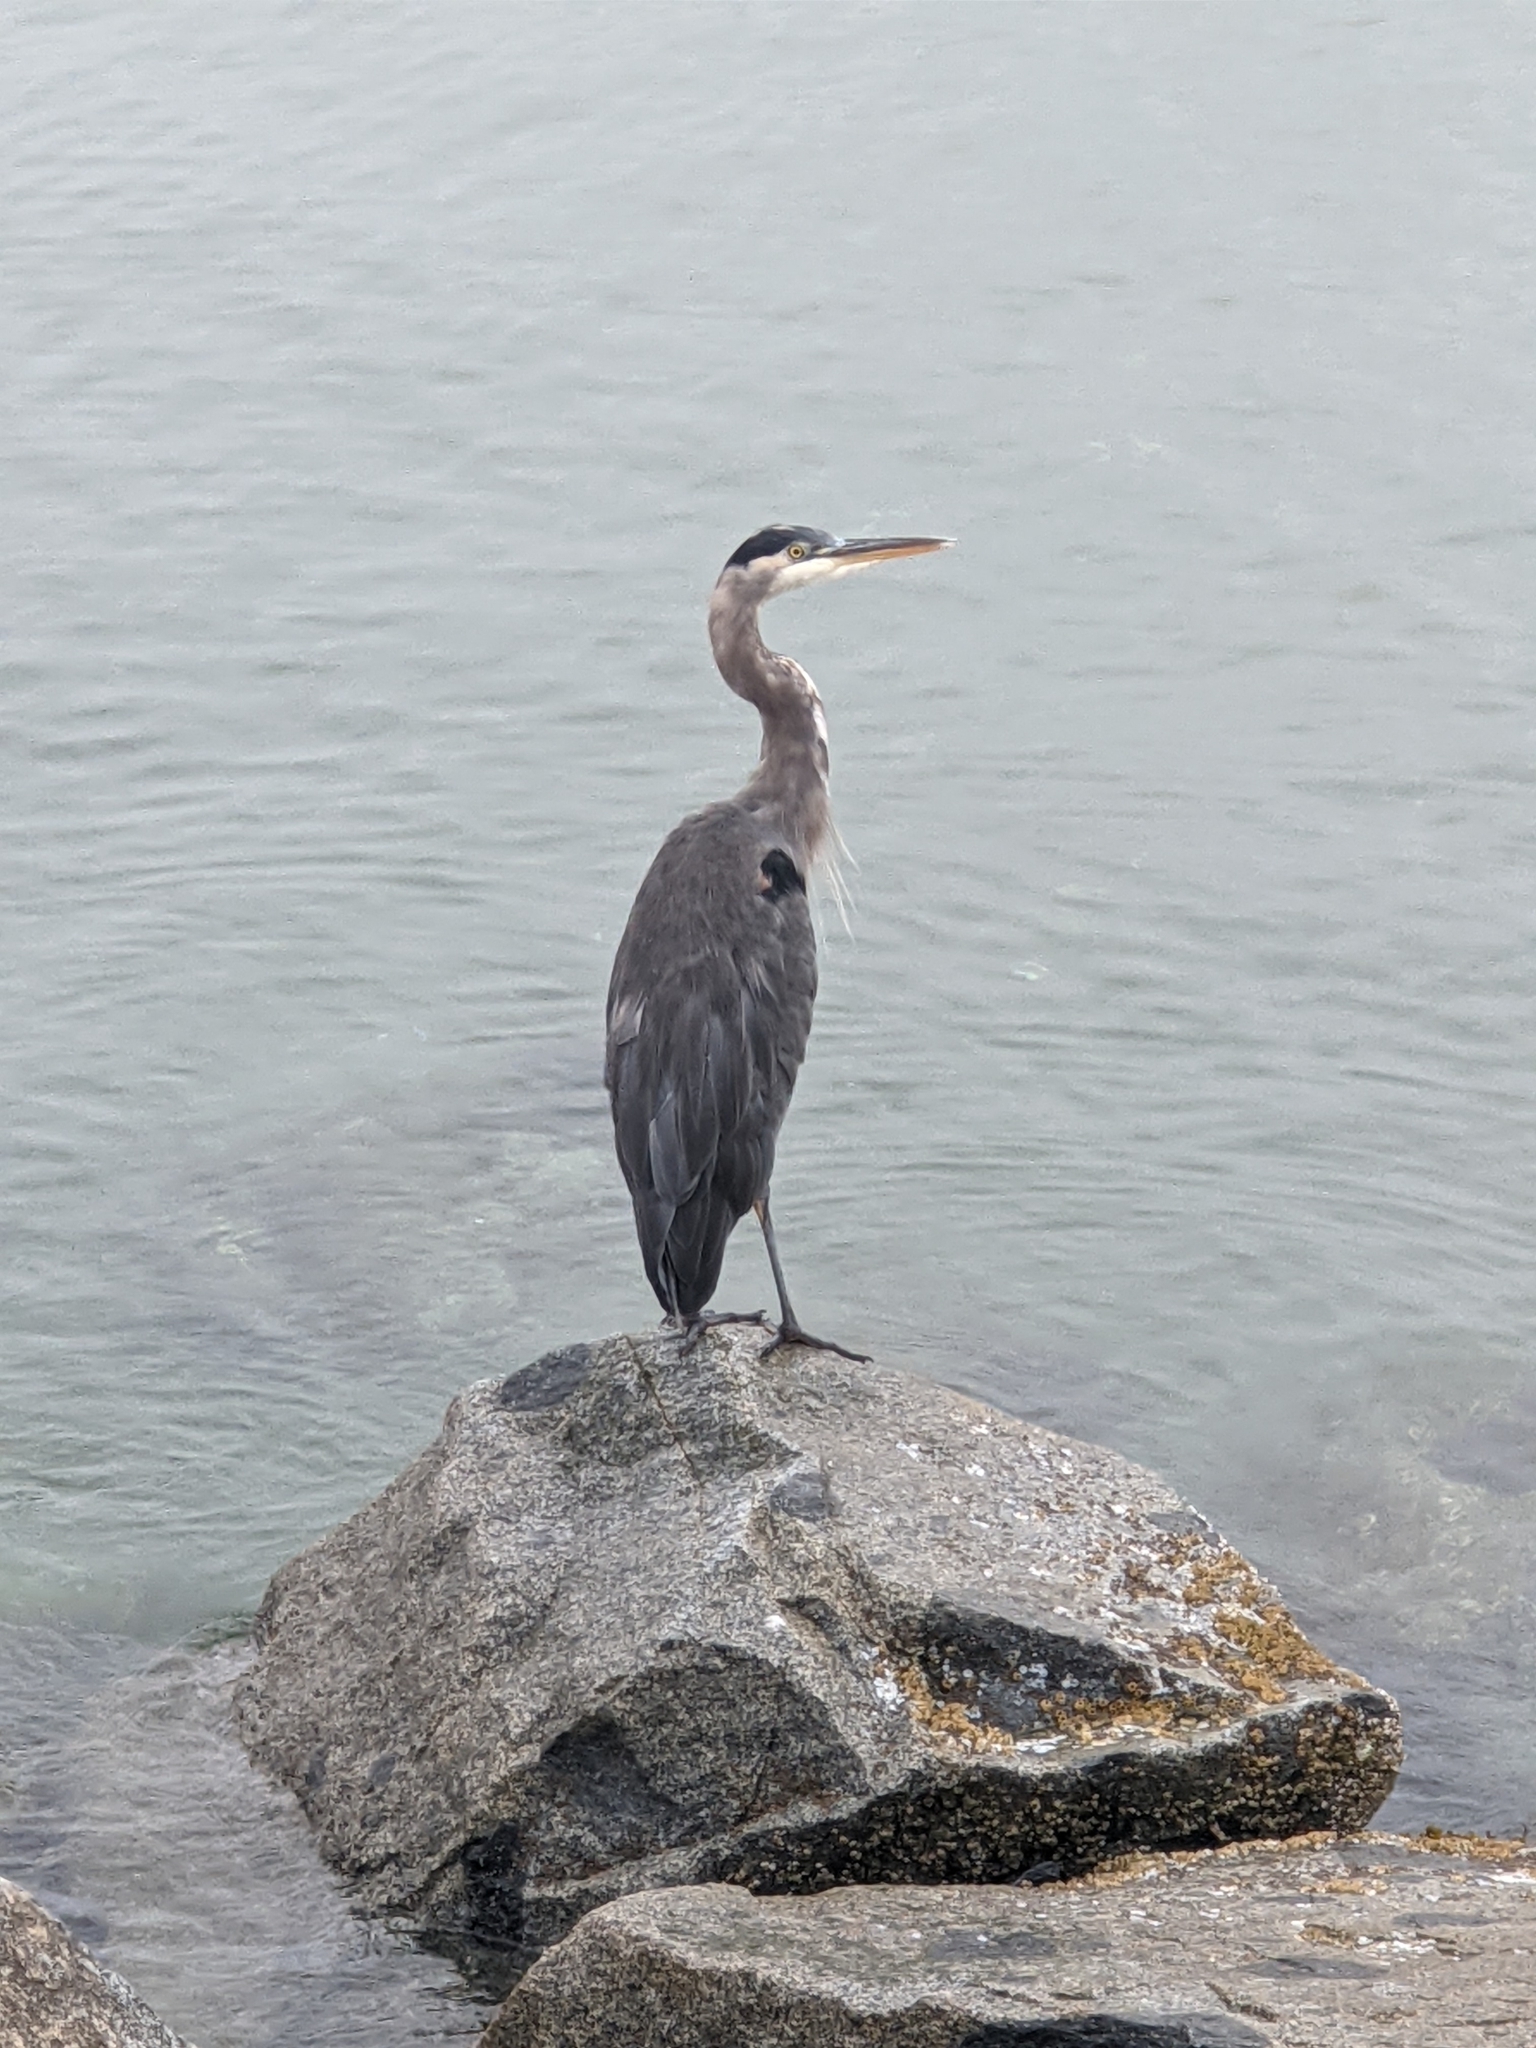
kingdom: Animalia
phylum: Chordata
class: Aves
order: Pelecaniformes
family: Ardeidae
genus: Ardea
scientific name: Ardea herodias
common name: Great blue heron
